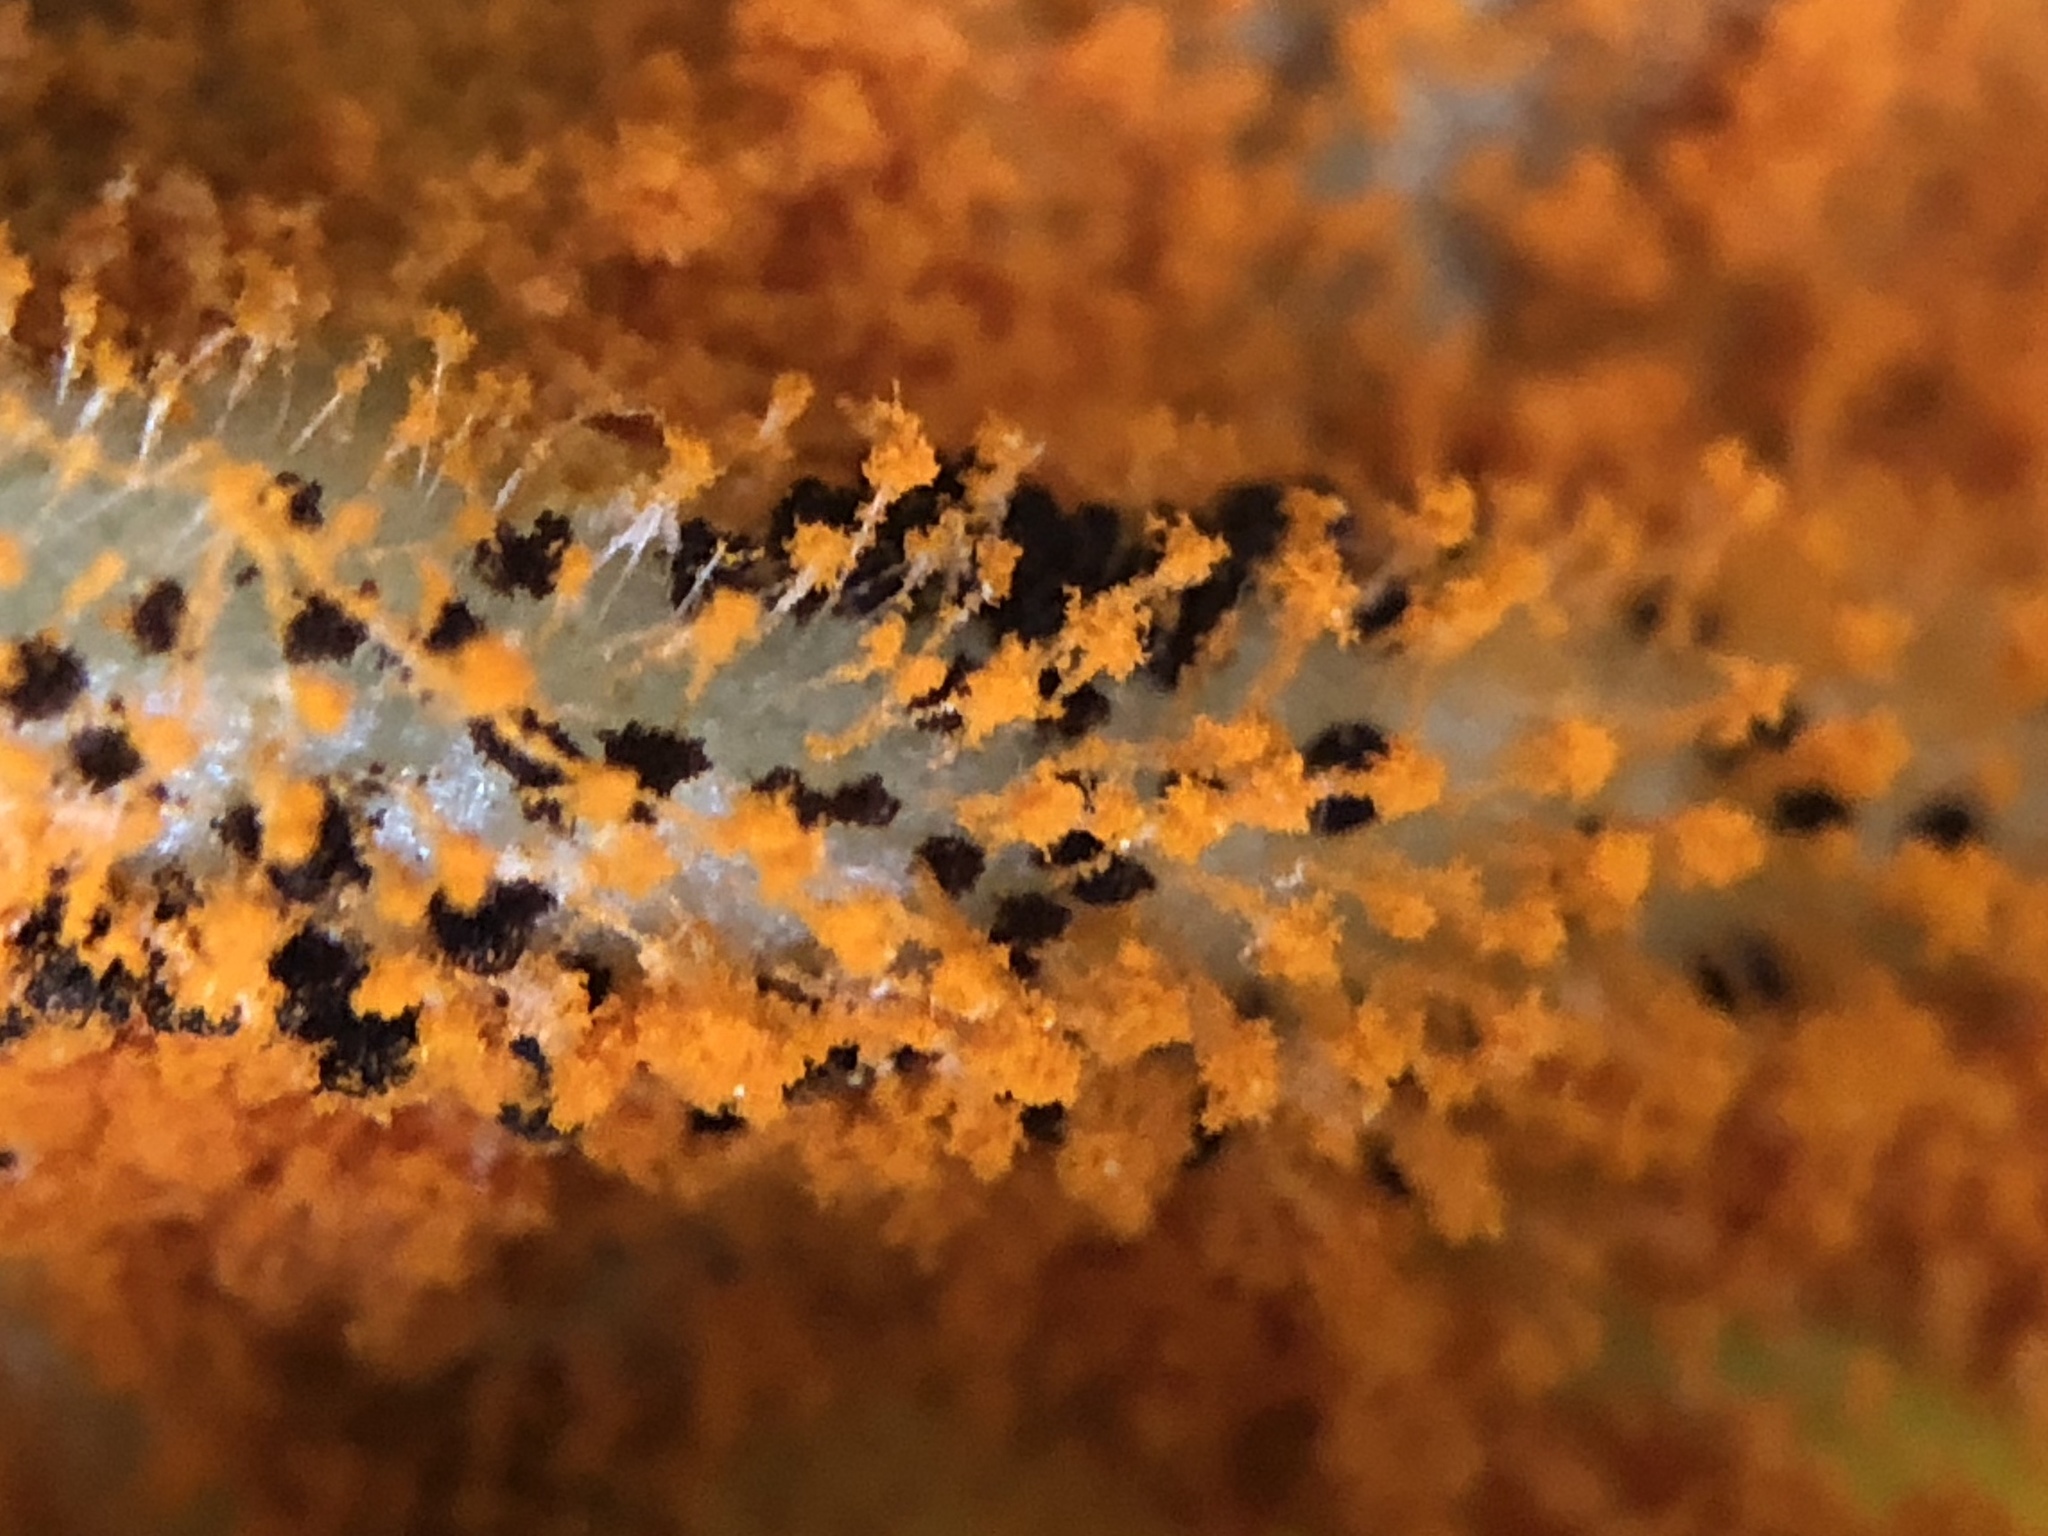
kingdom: Fungi
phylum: Basidiomycota
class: Pucciniomycetes
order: Pucciniales
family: Pucciniaceae
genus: Puccinia
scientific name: Puccinia podophylli
